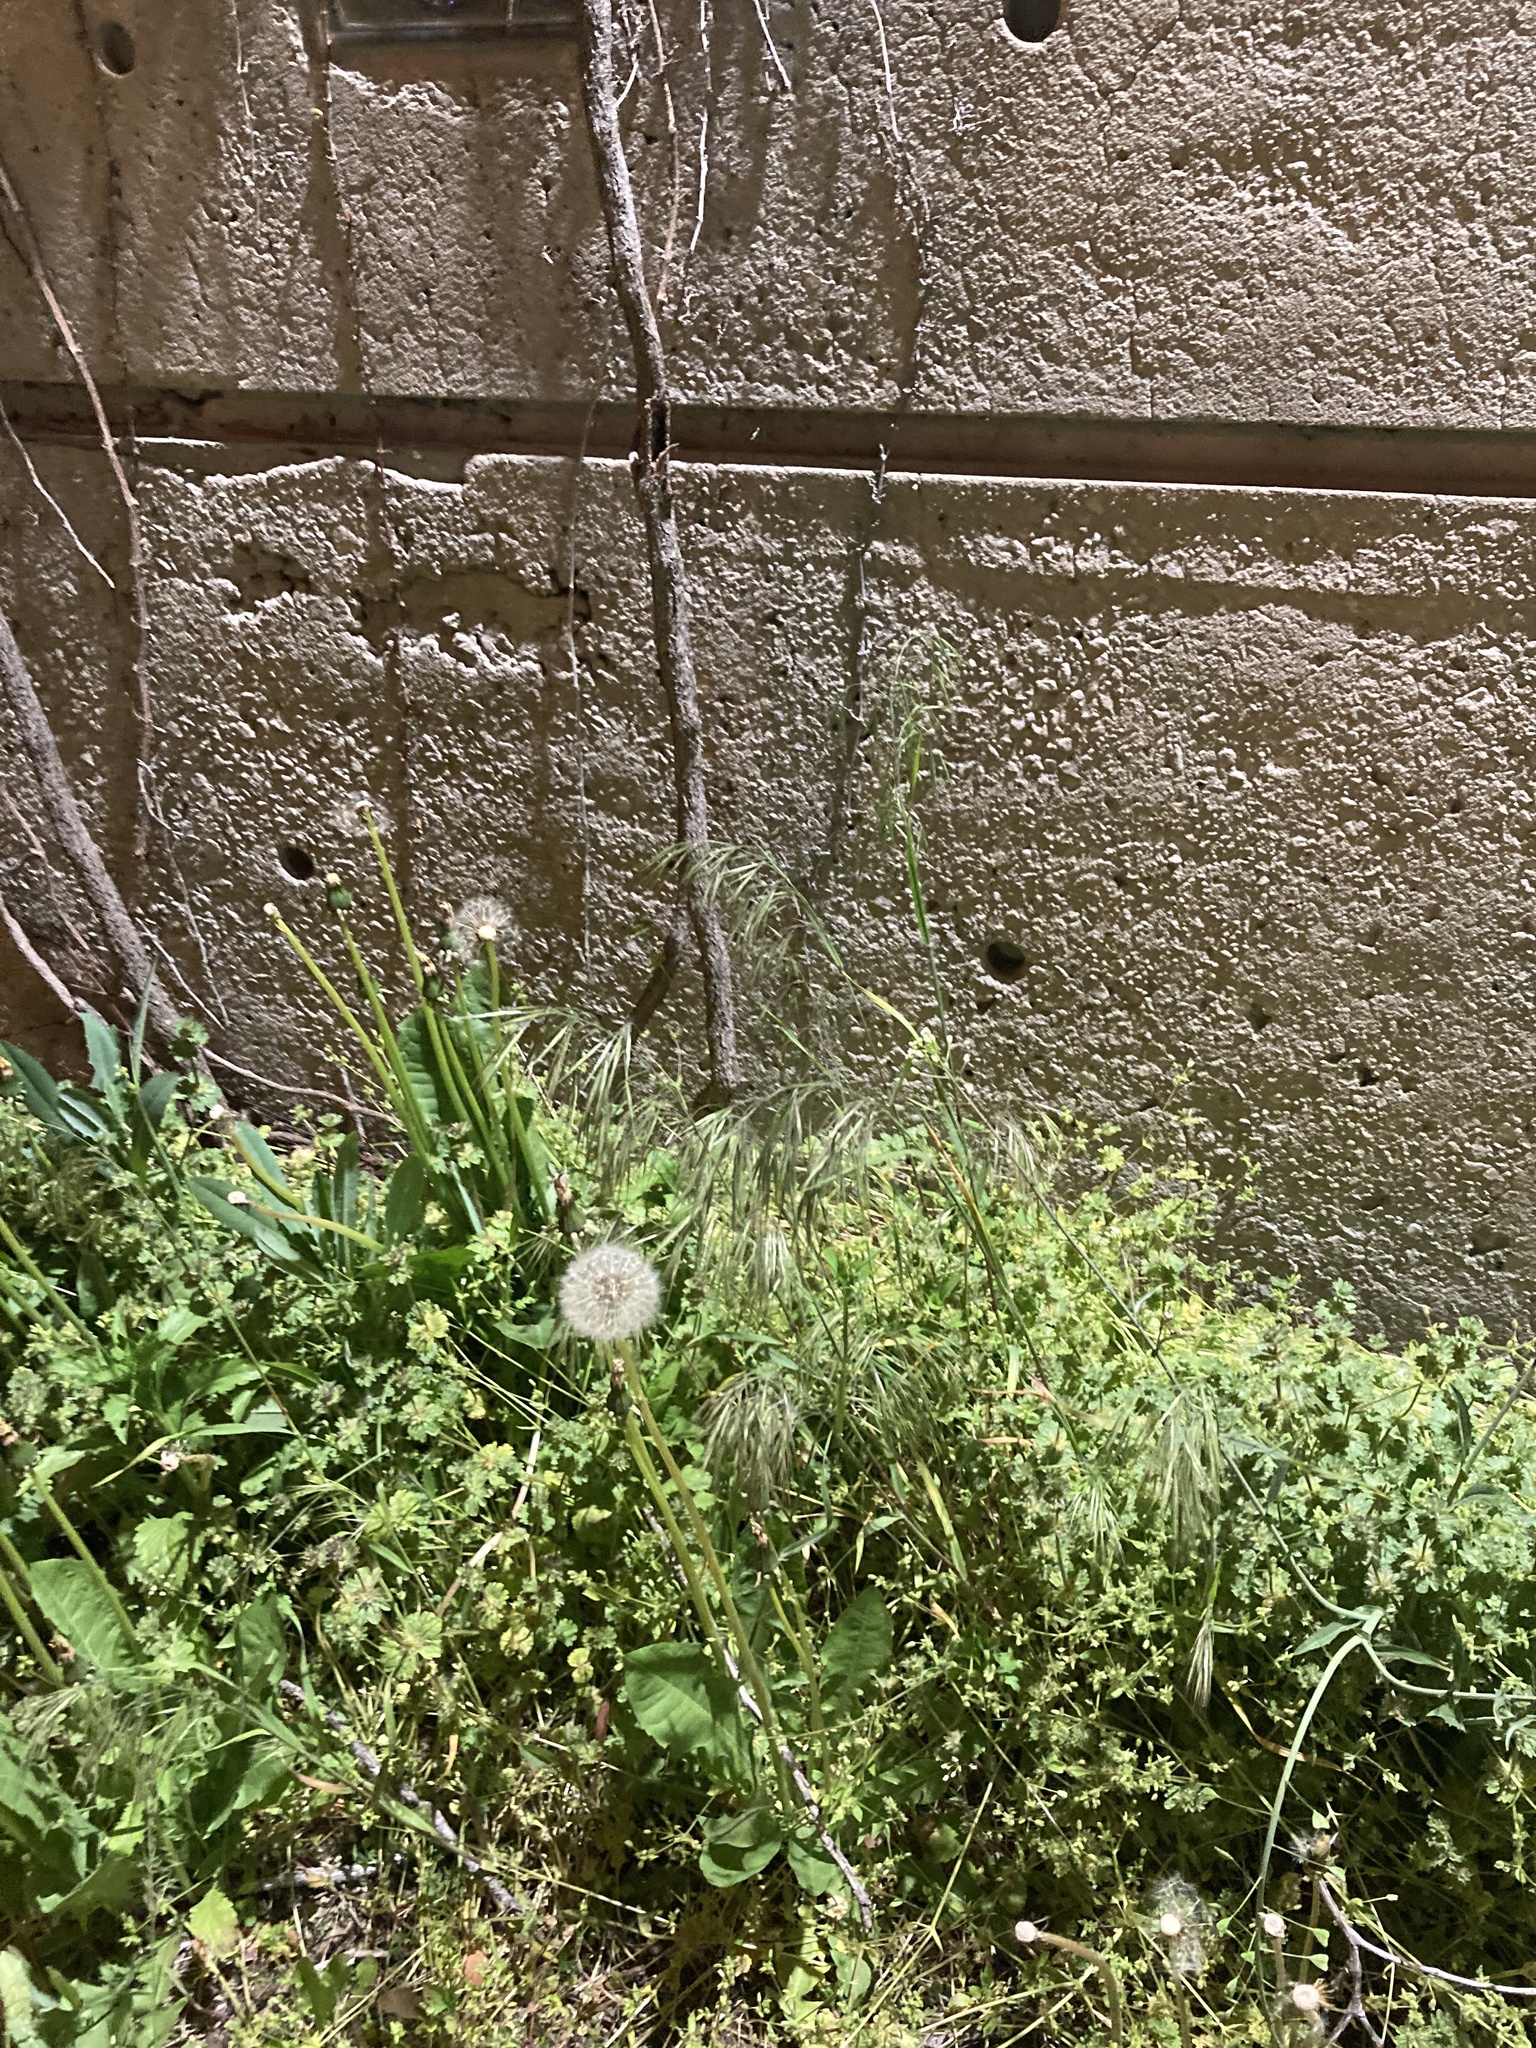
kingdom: Plantae
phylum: Tracheophyta
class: Liliopsida
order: Poales
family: Poaceae
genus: Bromus
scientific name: Bromus tectorum
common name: Cheatgrass
